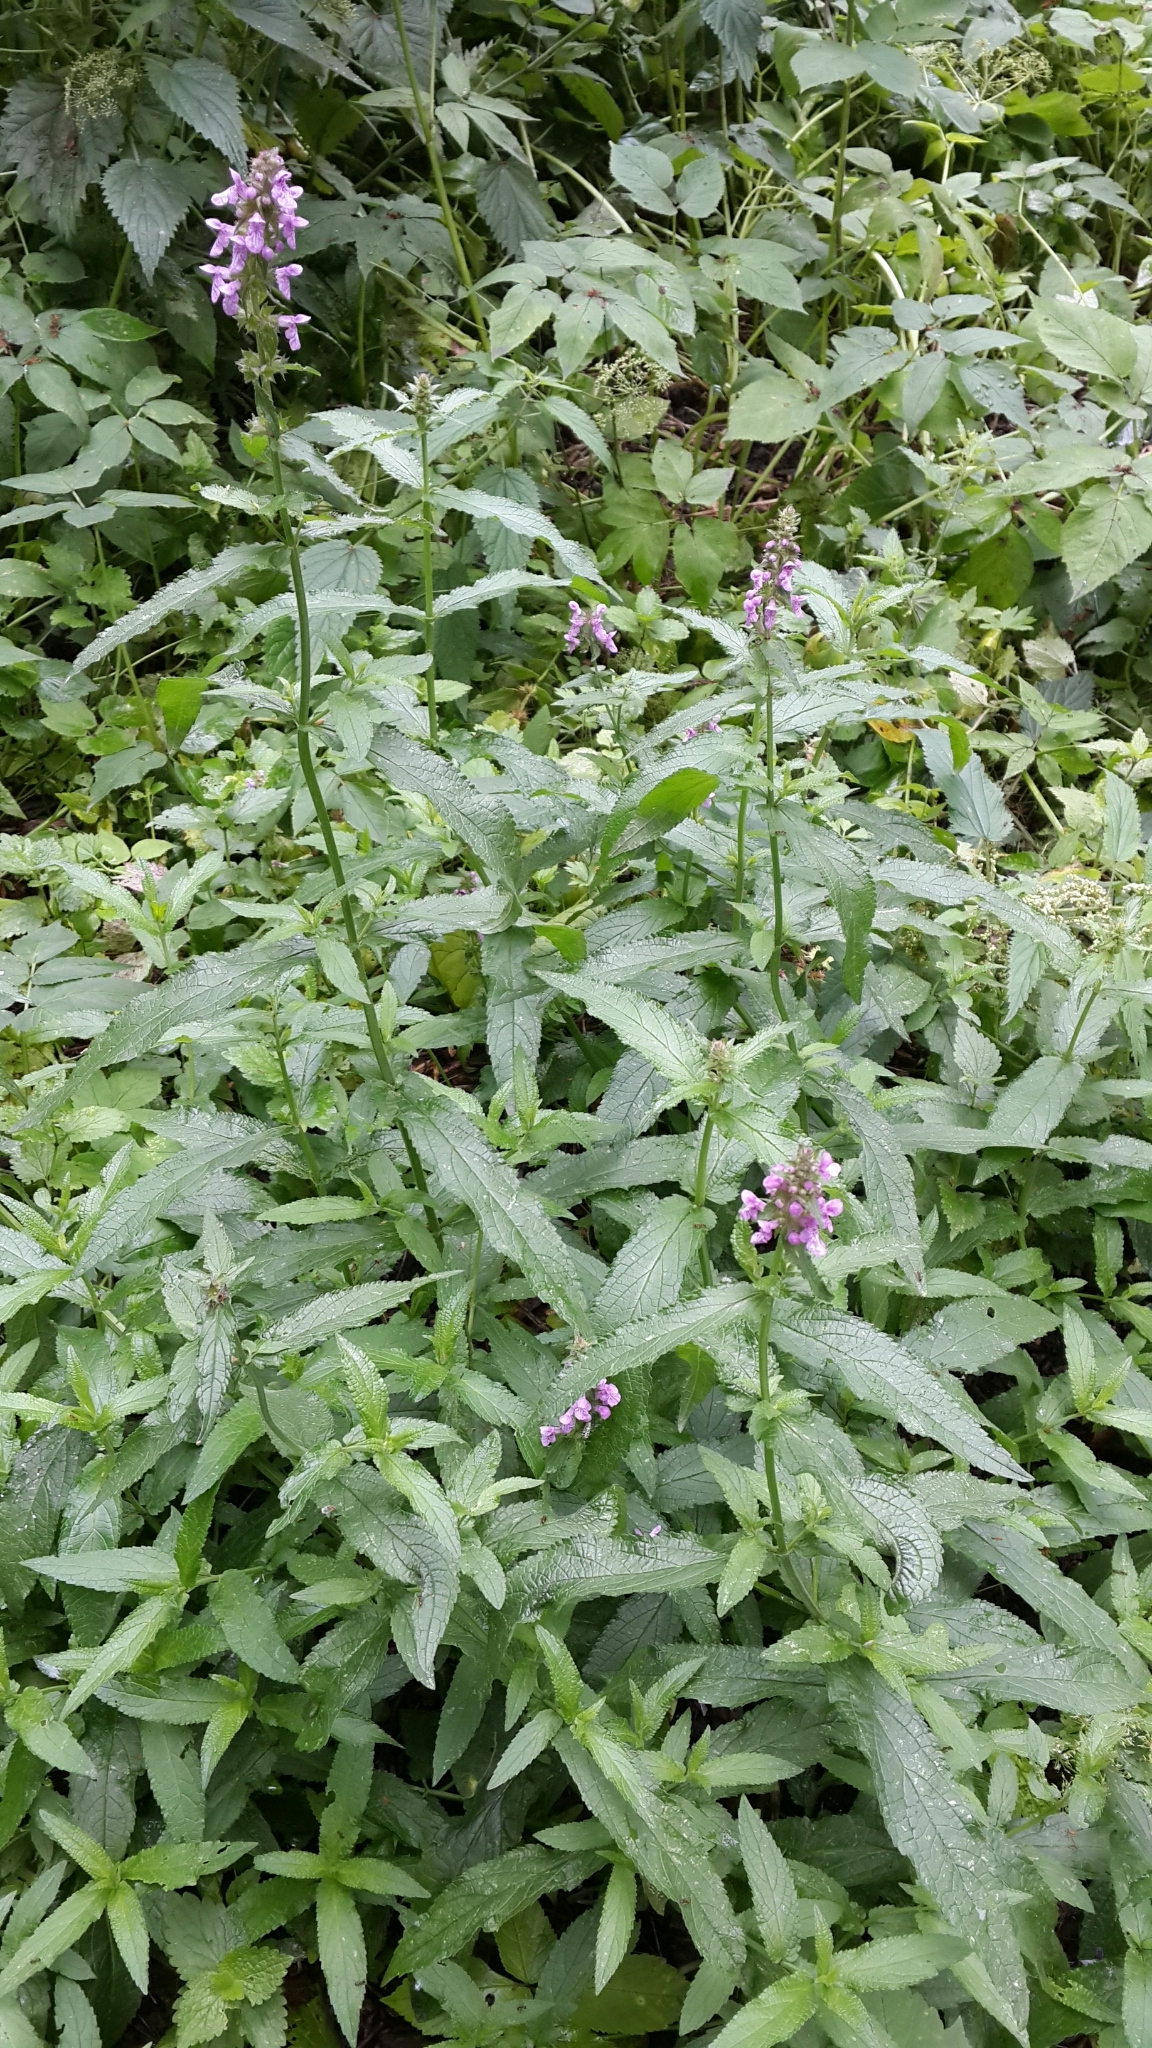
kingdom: Plantae
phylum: Tracheophyta
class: Magnoliopsida
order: Lamiales
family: Lamiaceae
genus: Stachys
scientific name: Stachys palustris
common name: Marsh woundwort
